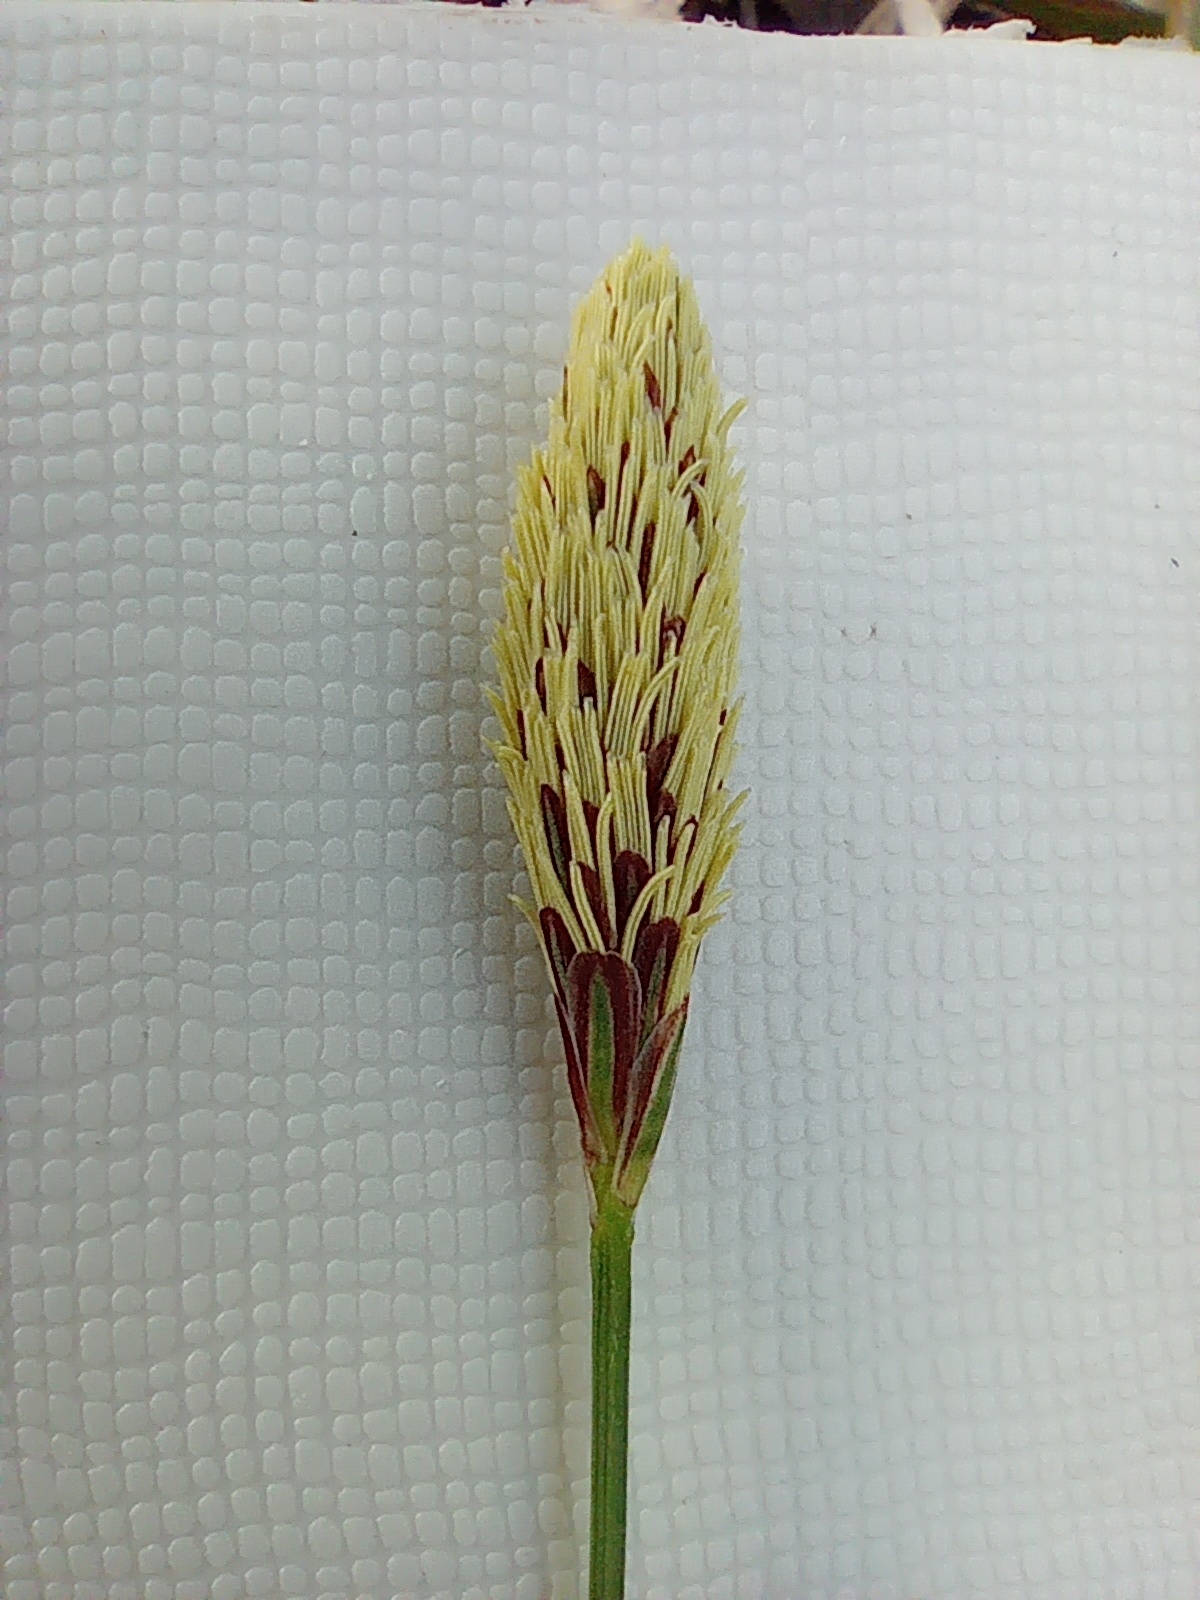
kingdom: Plantae
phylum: Tracheophyta
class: Liliopsida
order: Poales
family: Cyperaceae
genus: Carex
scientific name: Carex pilosa
